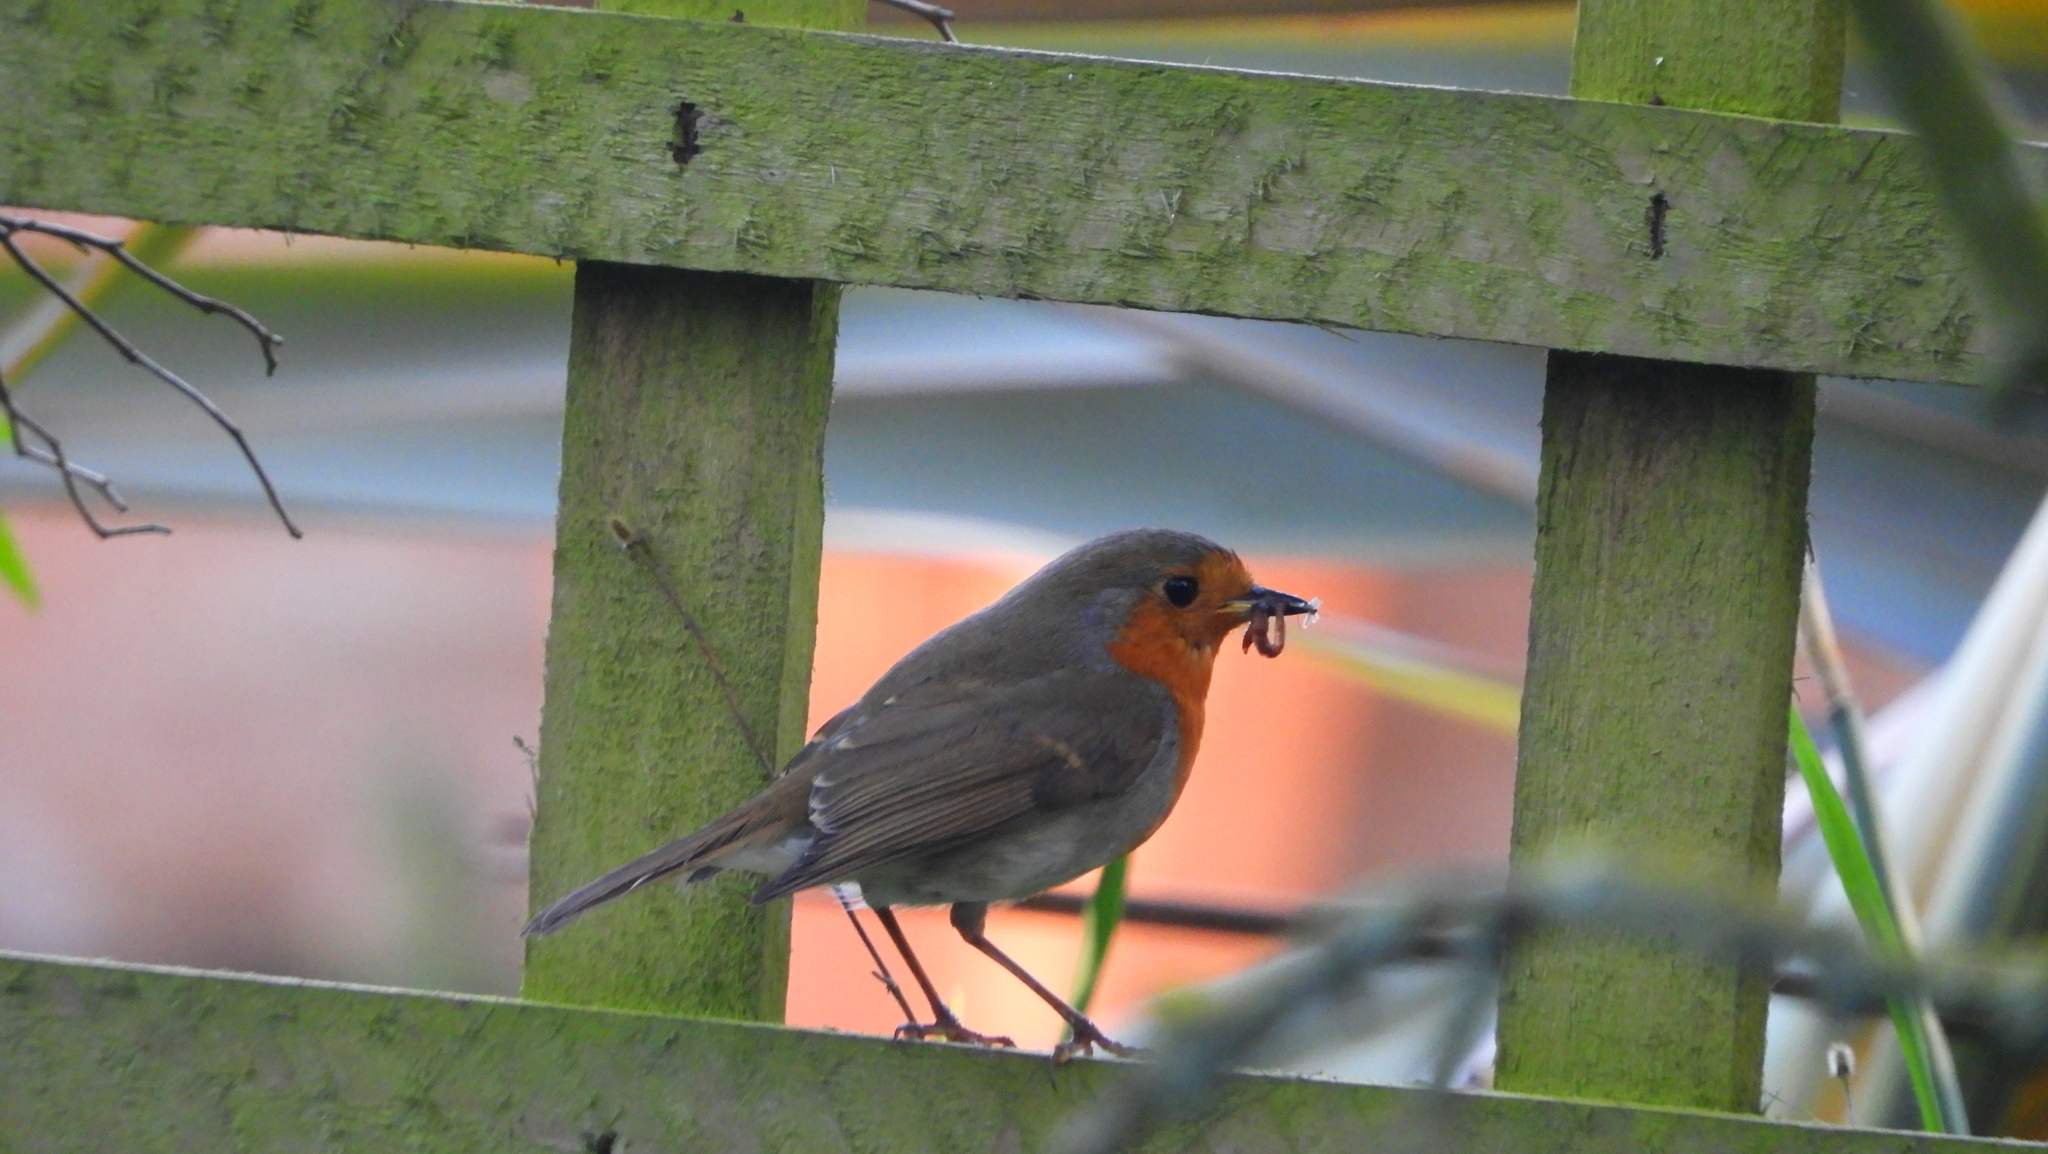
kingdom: Animalia
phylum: Chordata
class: Aves
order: Passeriformes
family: Muscicapidae
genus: Erithacus
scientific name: Erithacus rubecula
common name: European robin
